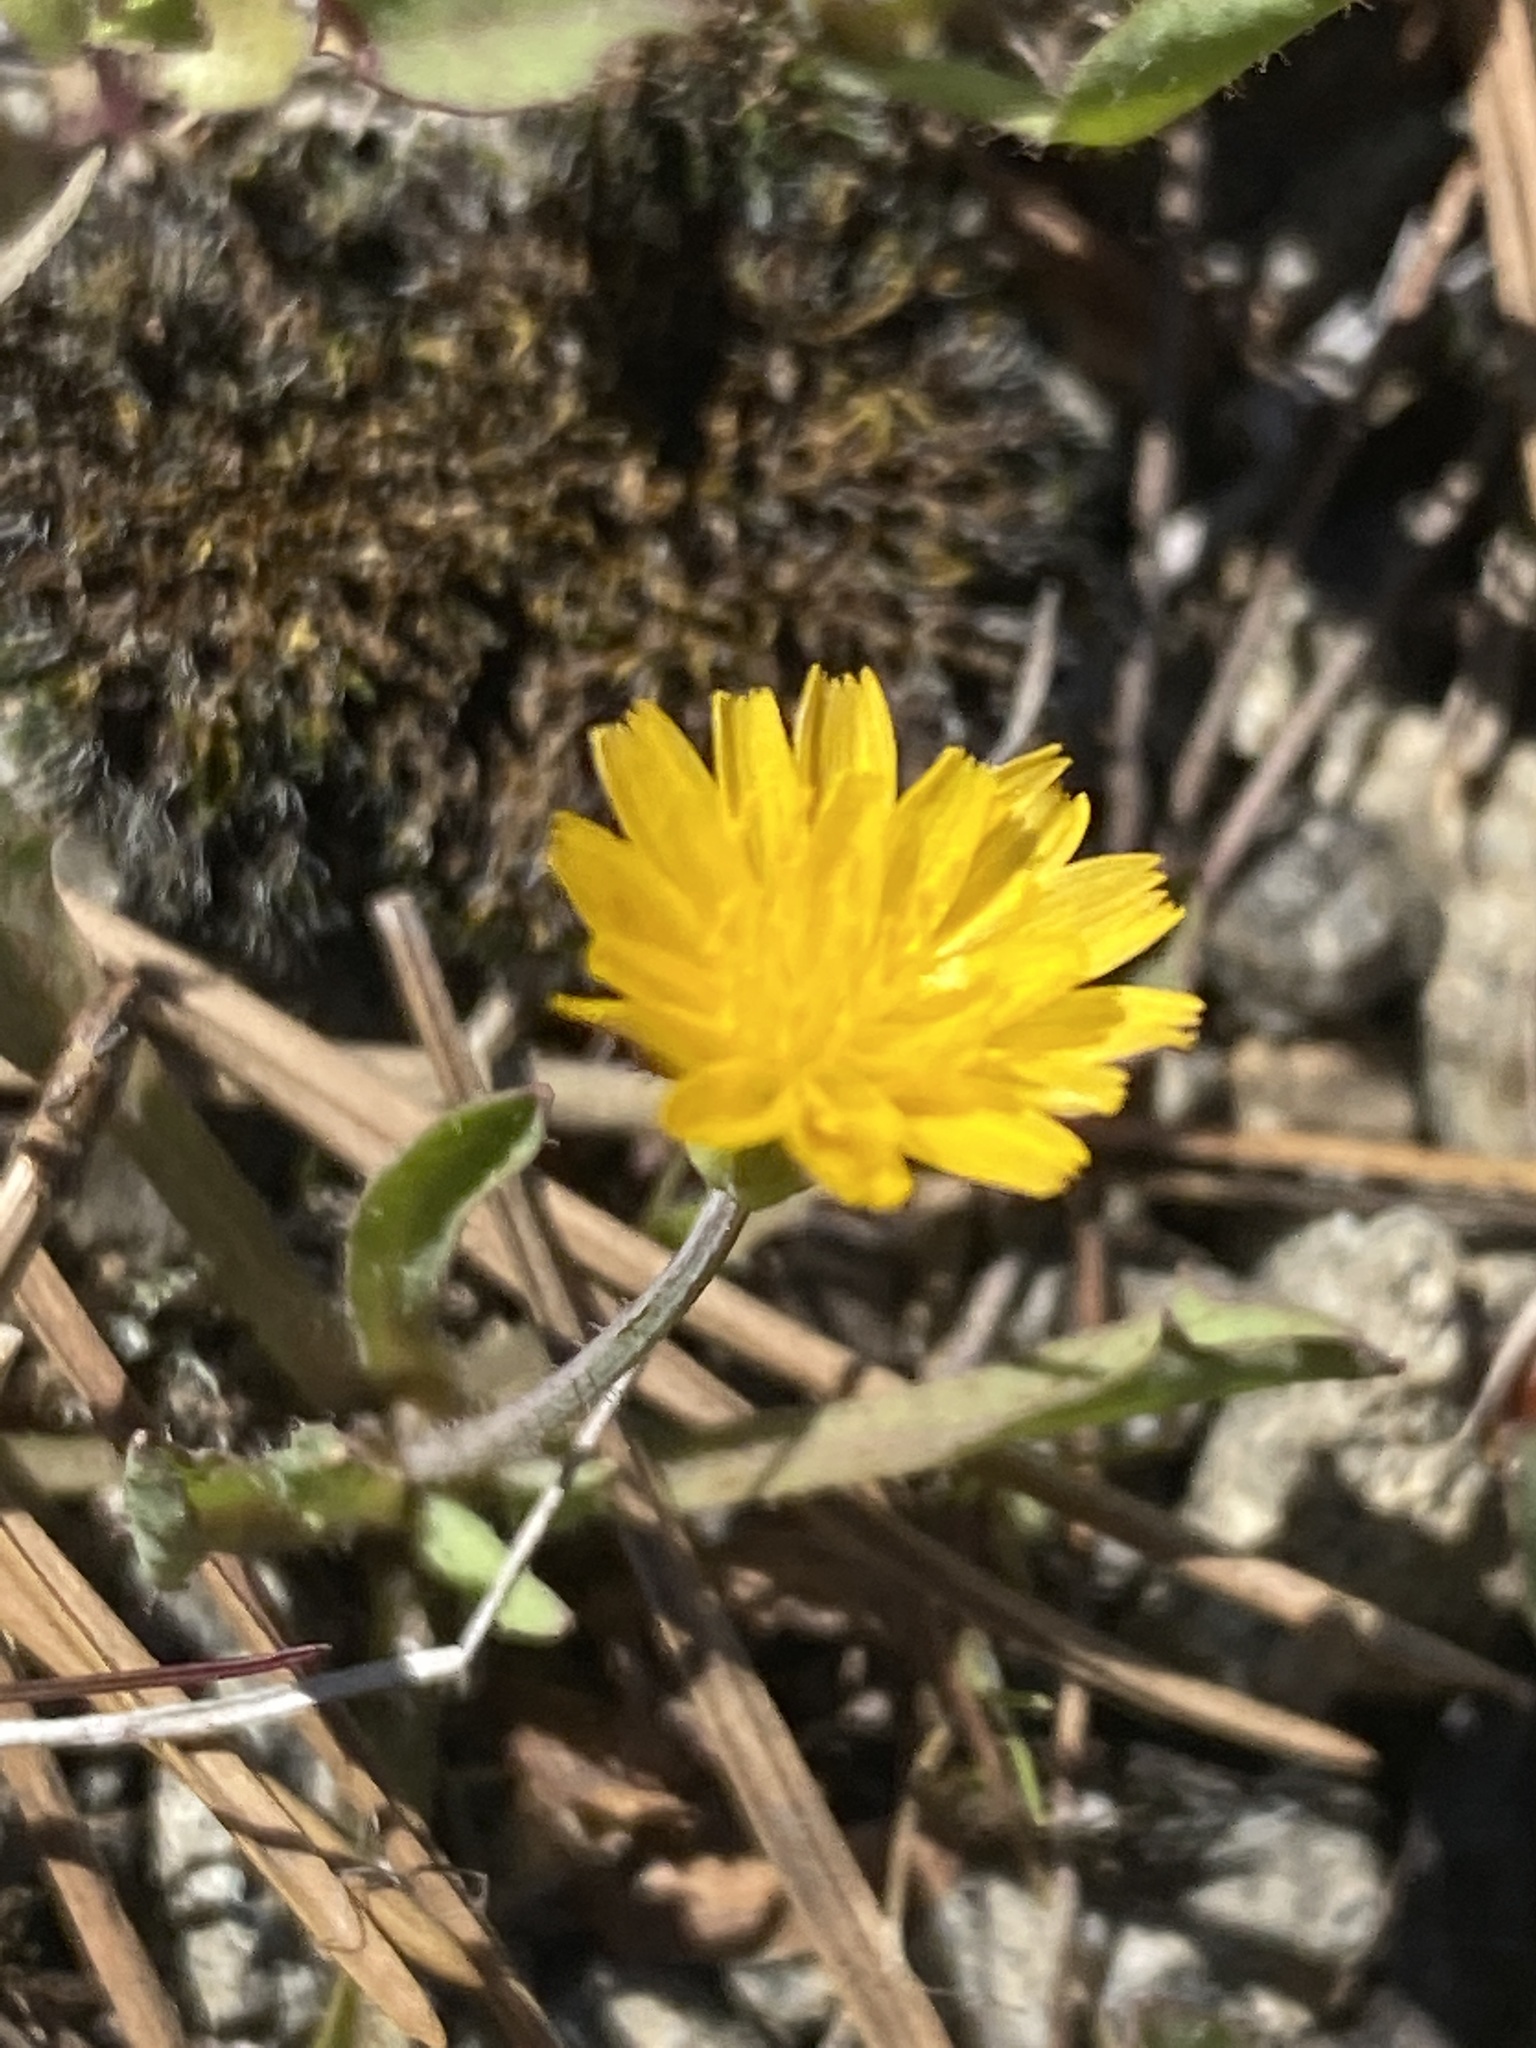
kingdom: Plantae
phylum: Tracheophyta
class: Magnoliopsida
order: Asterales
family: Asteraceae
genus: Krigia
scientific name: Krigia virginica
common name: Virginia dwarf-dandelion
